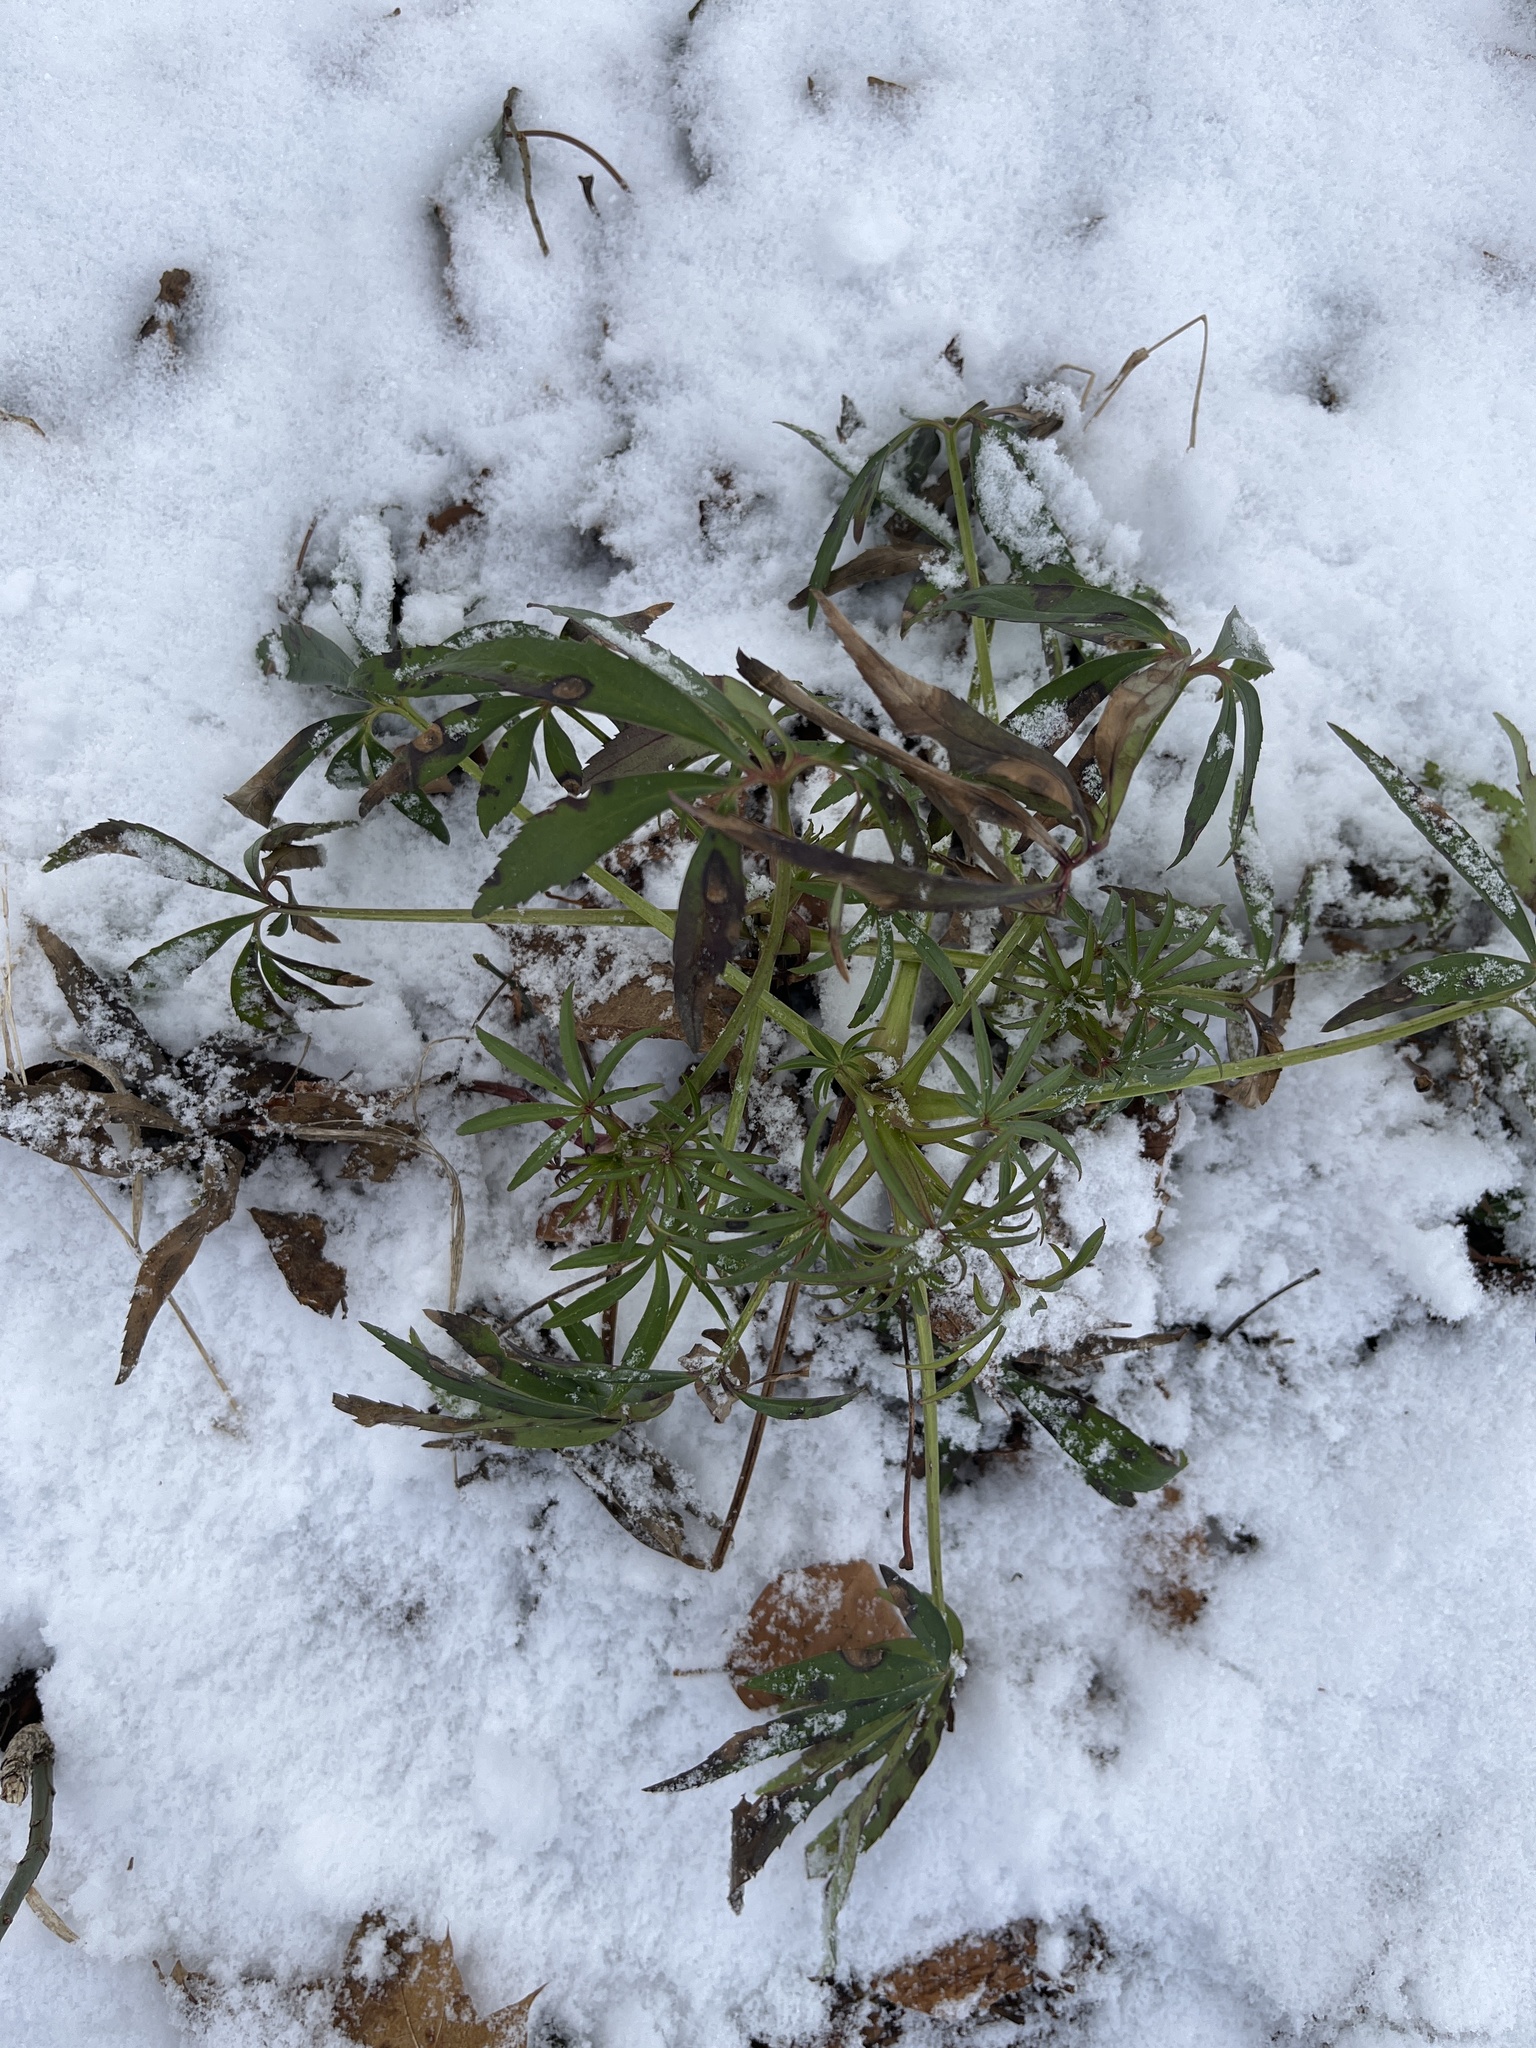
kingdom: Plantae
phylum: Tracheophyta
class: Magnoliopsida
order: Ranunculales
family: Ranunculaceae
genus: Helleborus
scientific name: Helleborus foetidus
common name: Stinking hellebore
